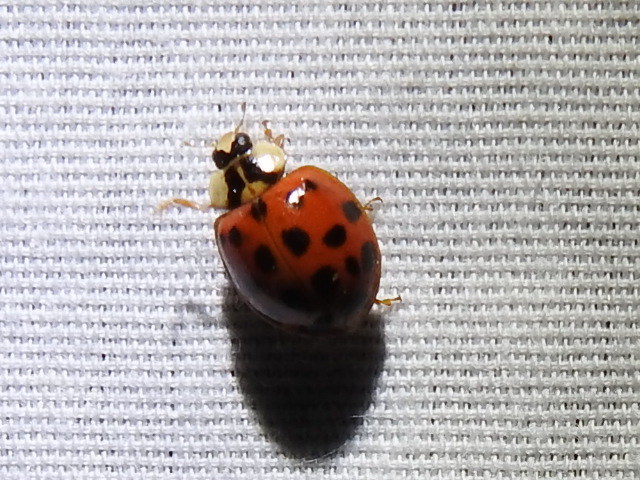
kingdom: Animalia
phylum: Arthropoda
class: Insecta
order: Coleoptera
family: Coccinellidae
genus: Harmonia
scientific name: Harmonia axyridis
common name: Harlequin ladybird
